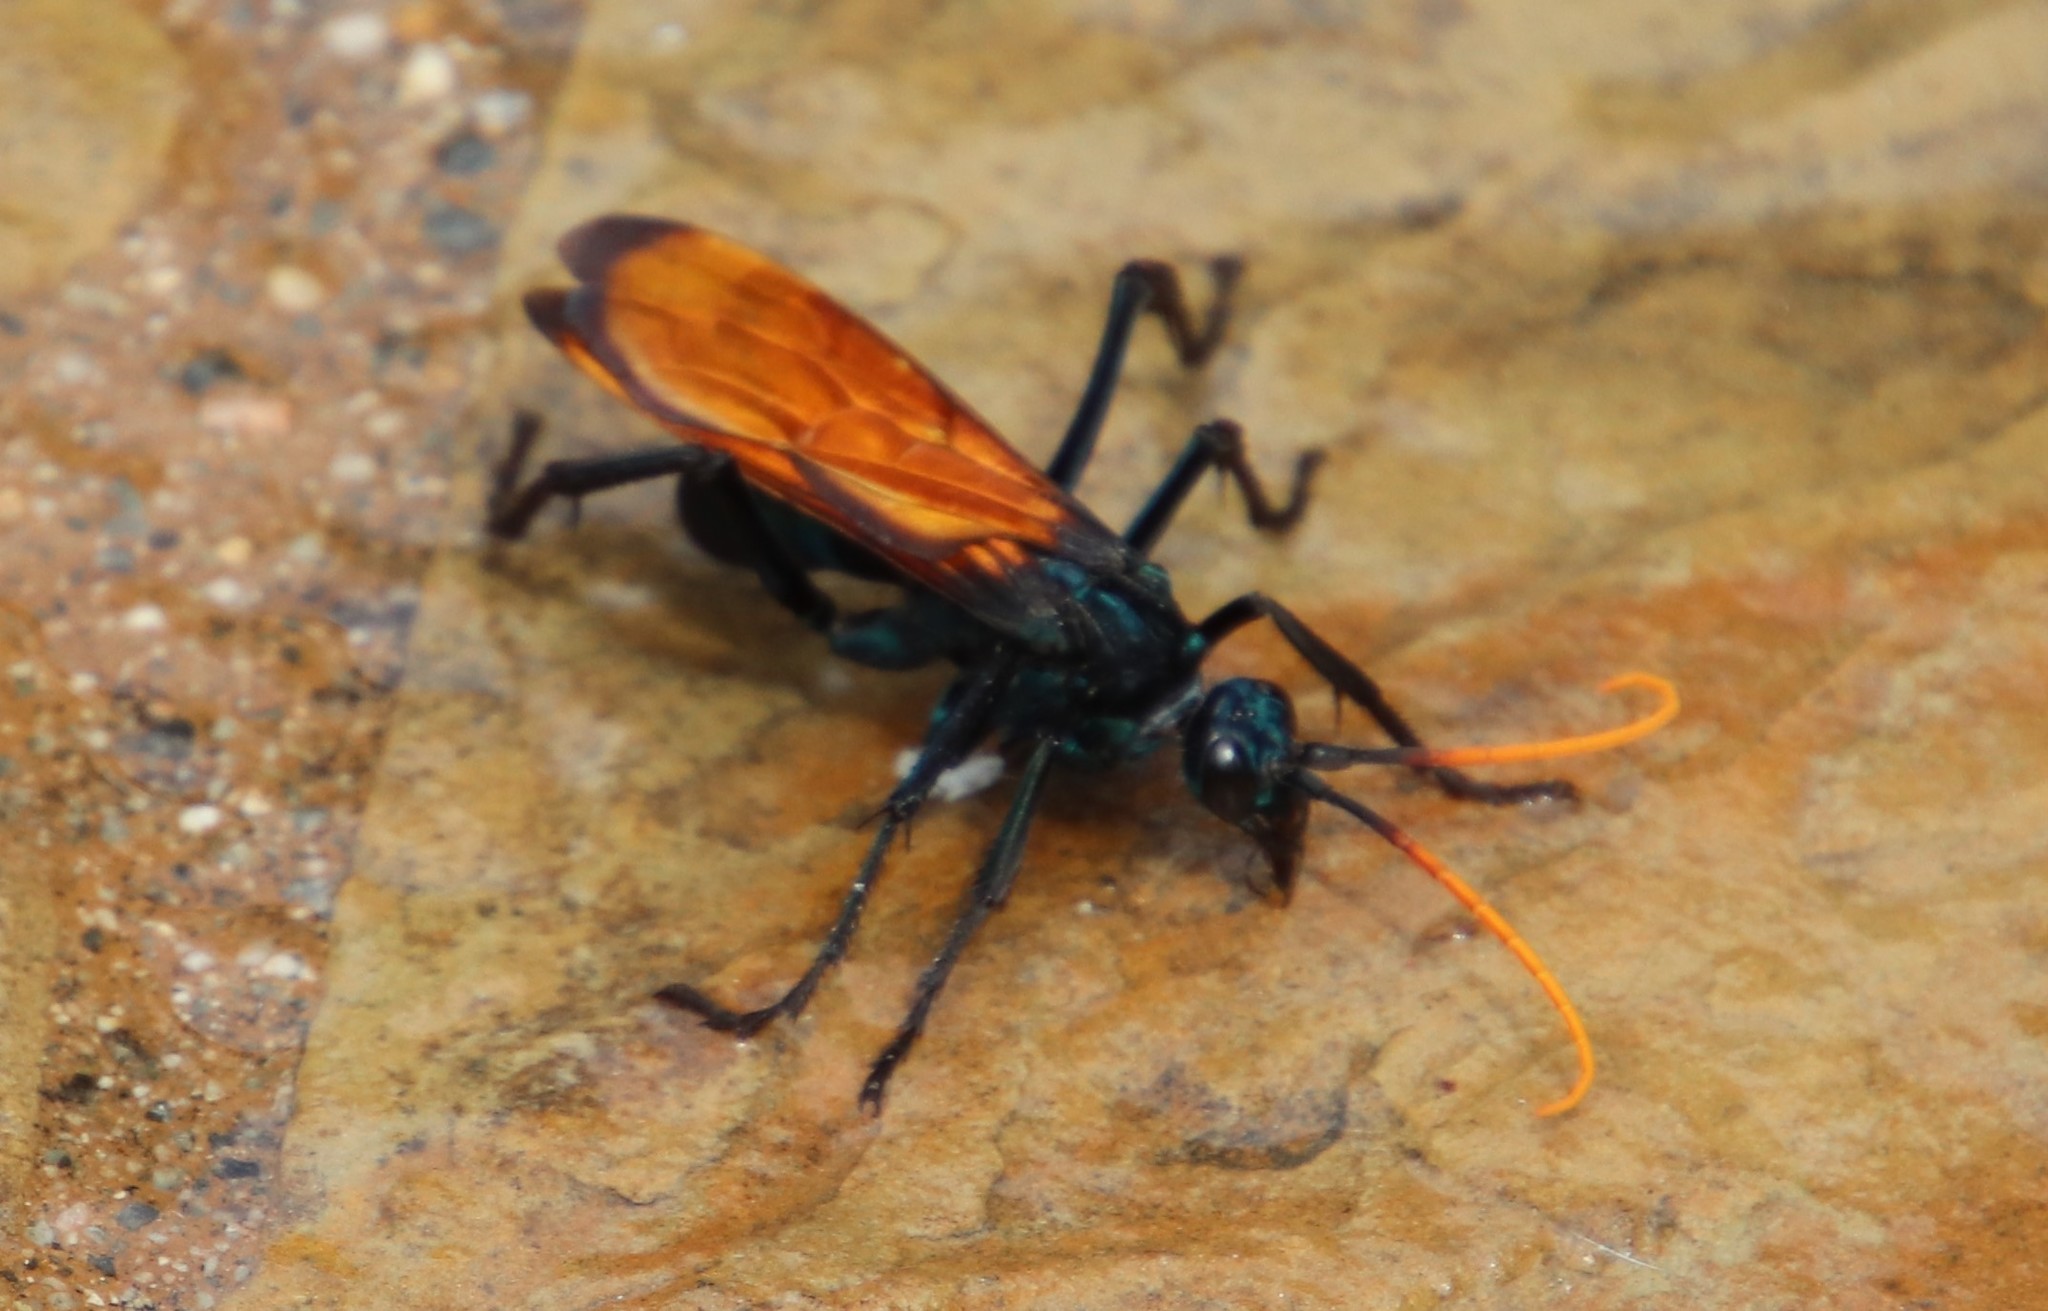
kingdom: Animalia
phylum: Arthropoda
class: Insecta
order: Hymenoptera
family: Pompilidae
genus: Pepsis
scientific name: Pepsis mildei
